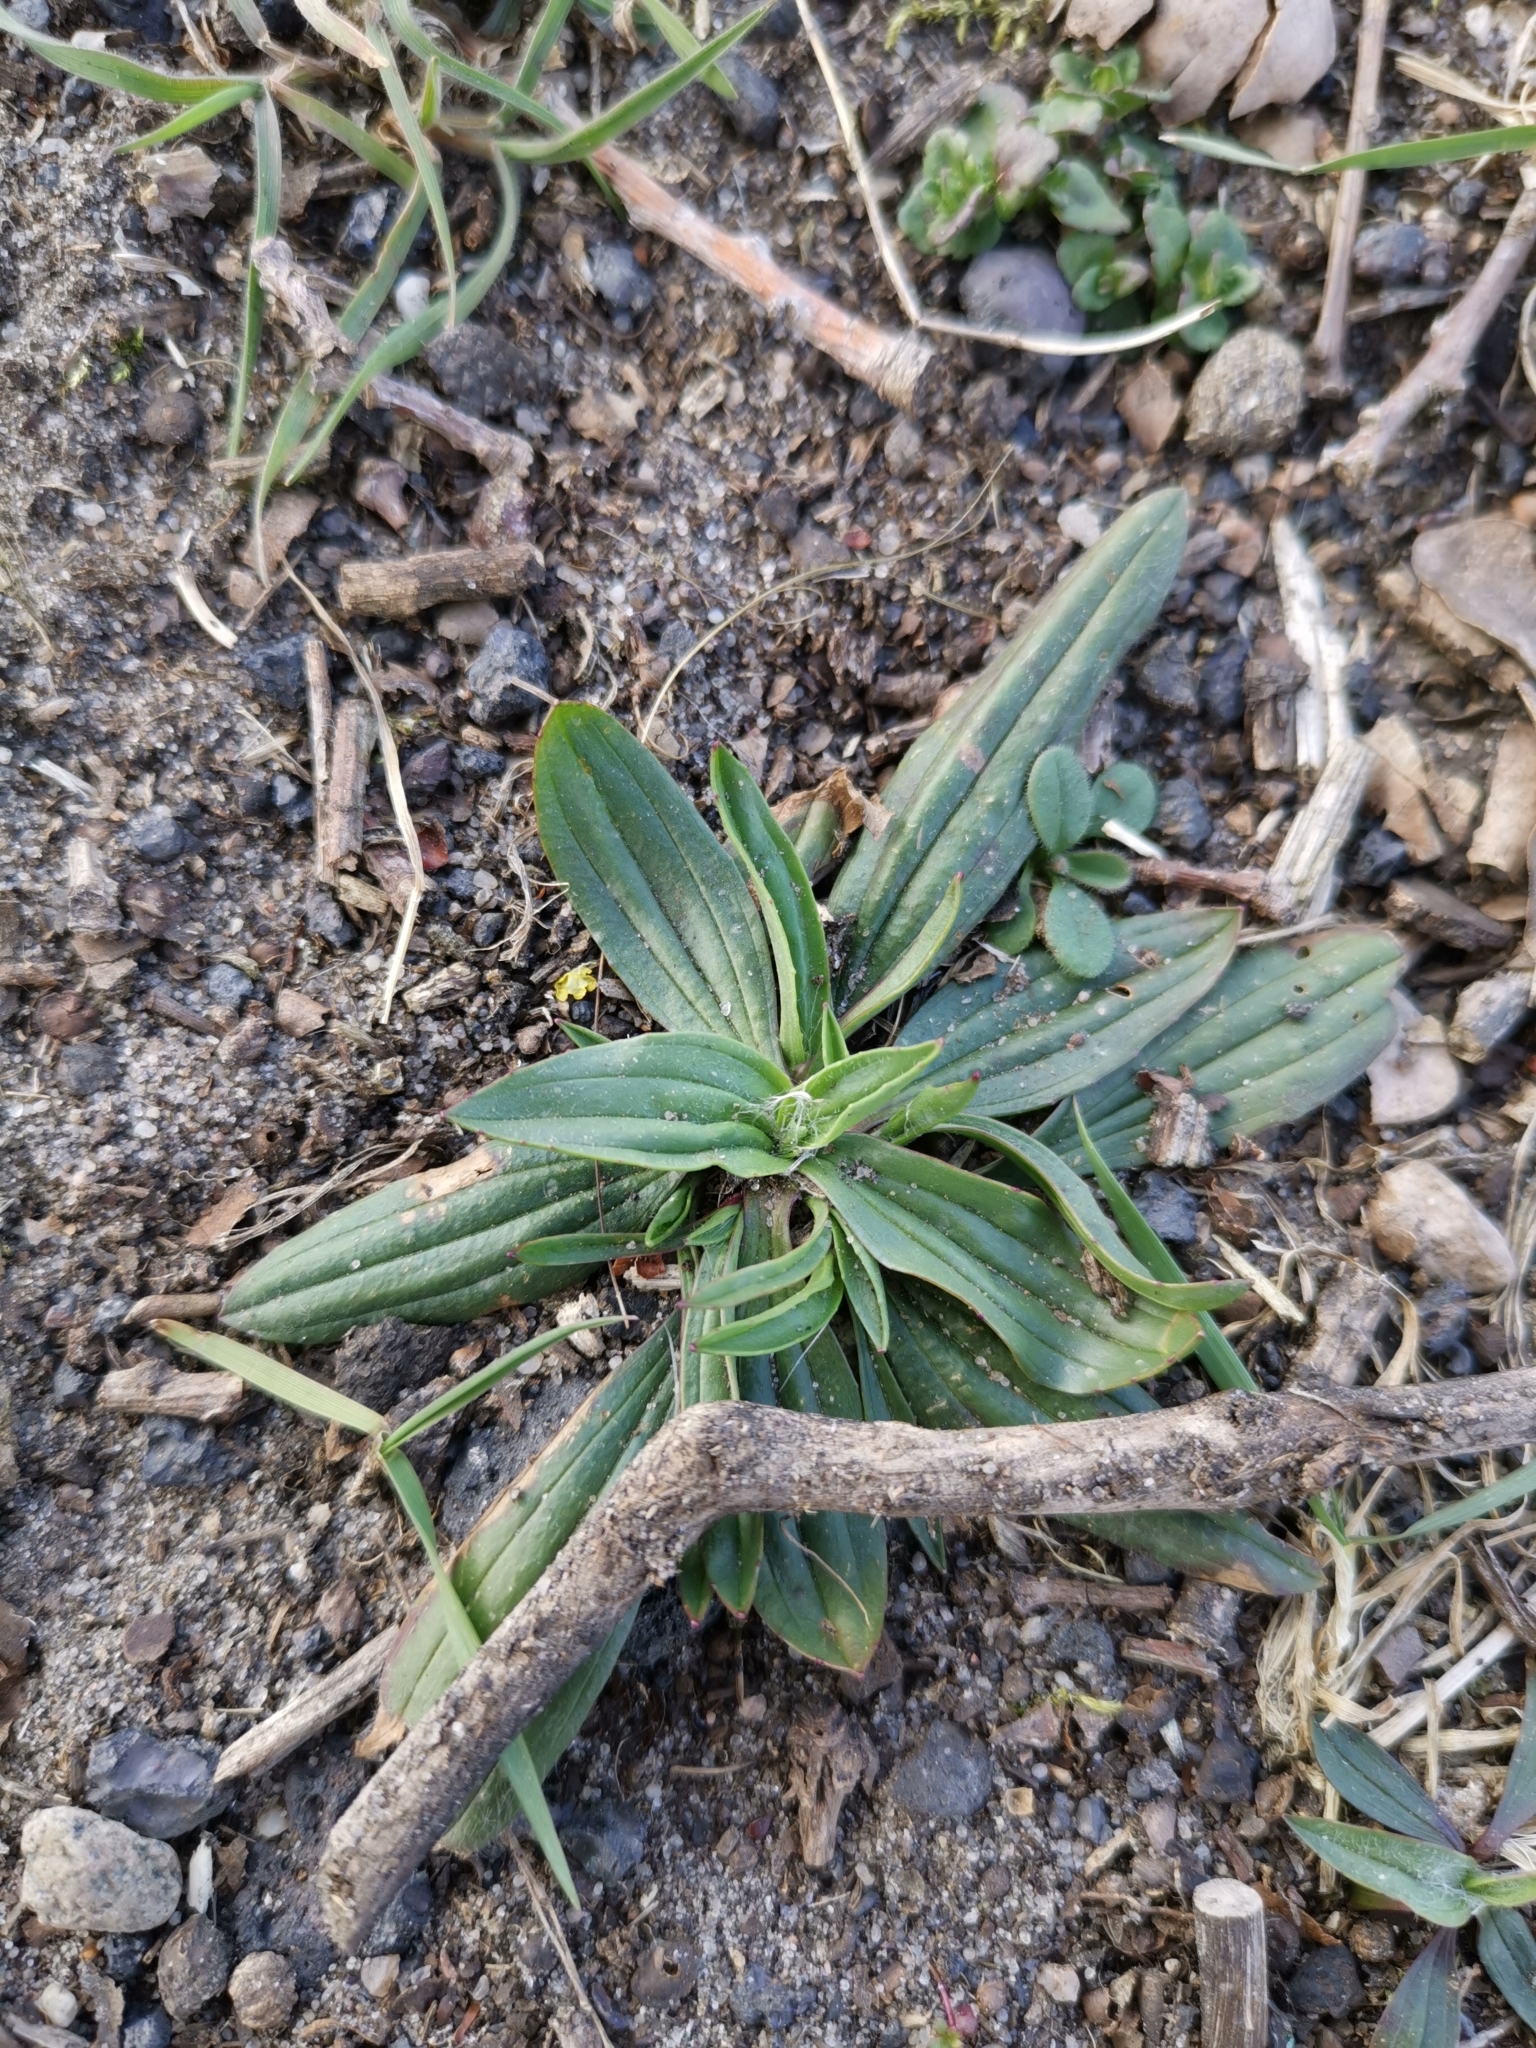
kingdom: Plantae
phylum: Tracheophyta
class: Magnoliopsida
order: Lamiales
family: Plantaginaceae
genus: Plantago
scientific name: Plantago lanceolata
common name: Ribwort plantain
